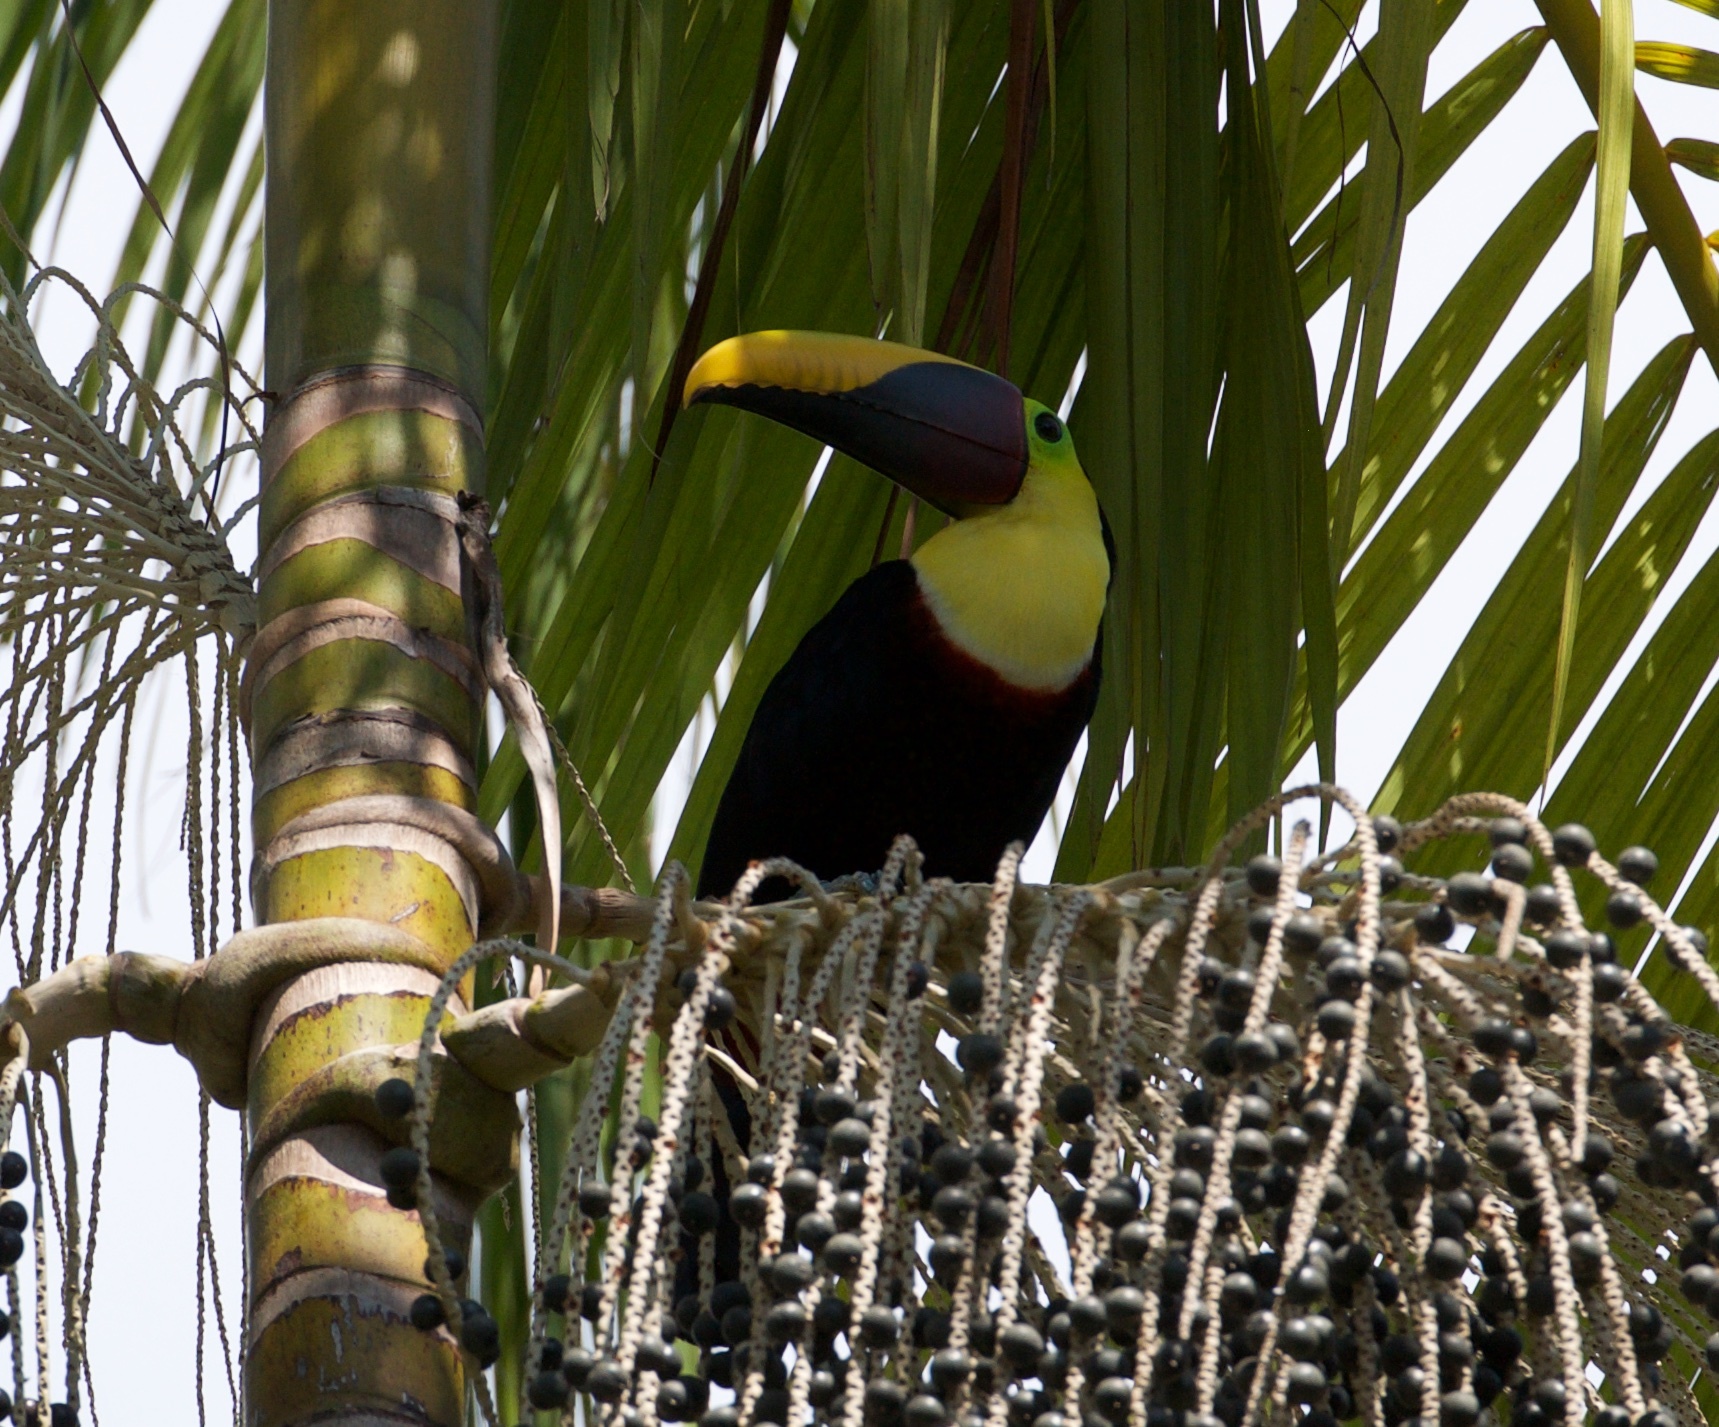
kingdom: Animalia
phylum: Chordata
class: Aves
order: Piciformes
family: Ramphastidae
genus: Ramphastos
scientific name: Ramphastos ambiguus
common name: Yellow-throated toucan
